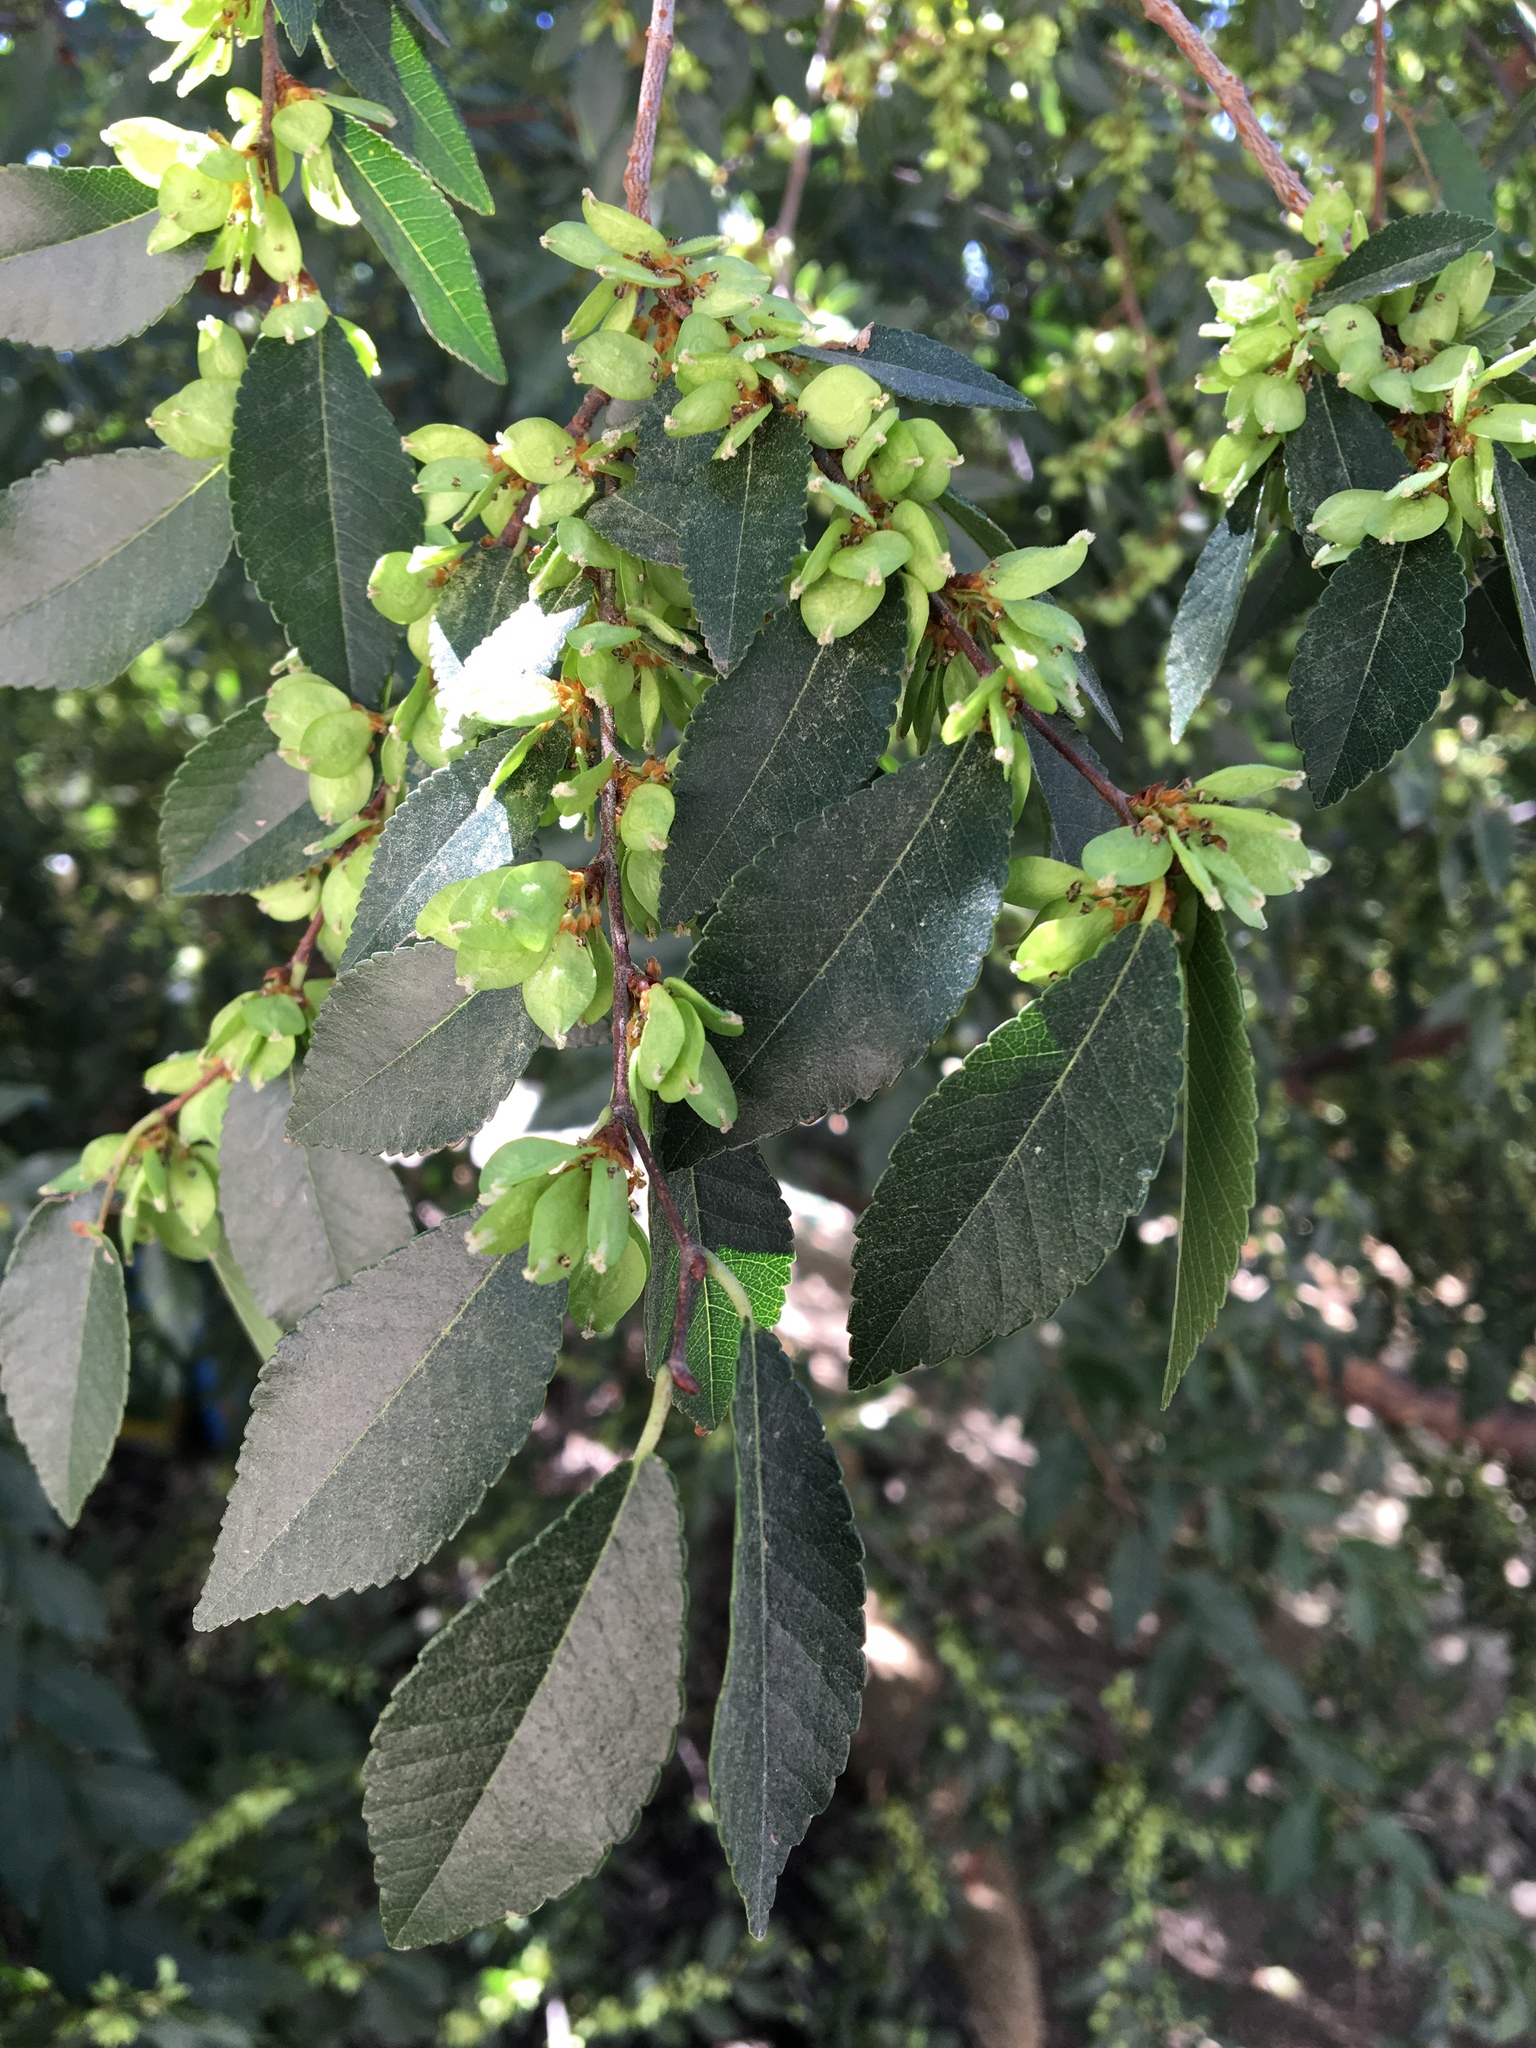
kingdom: Plantae
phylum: Tracheophyta
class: Magnoliopsida
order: Rosales
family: Ulmaceae
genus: Ulmus
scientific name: Ulmus parvifolia
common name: Chinese elm
